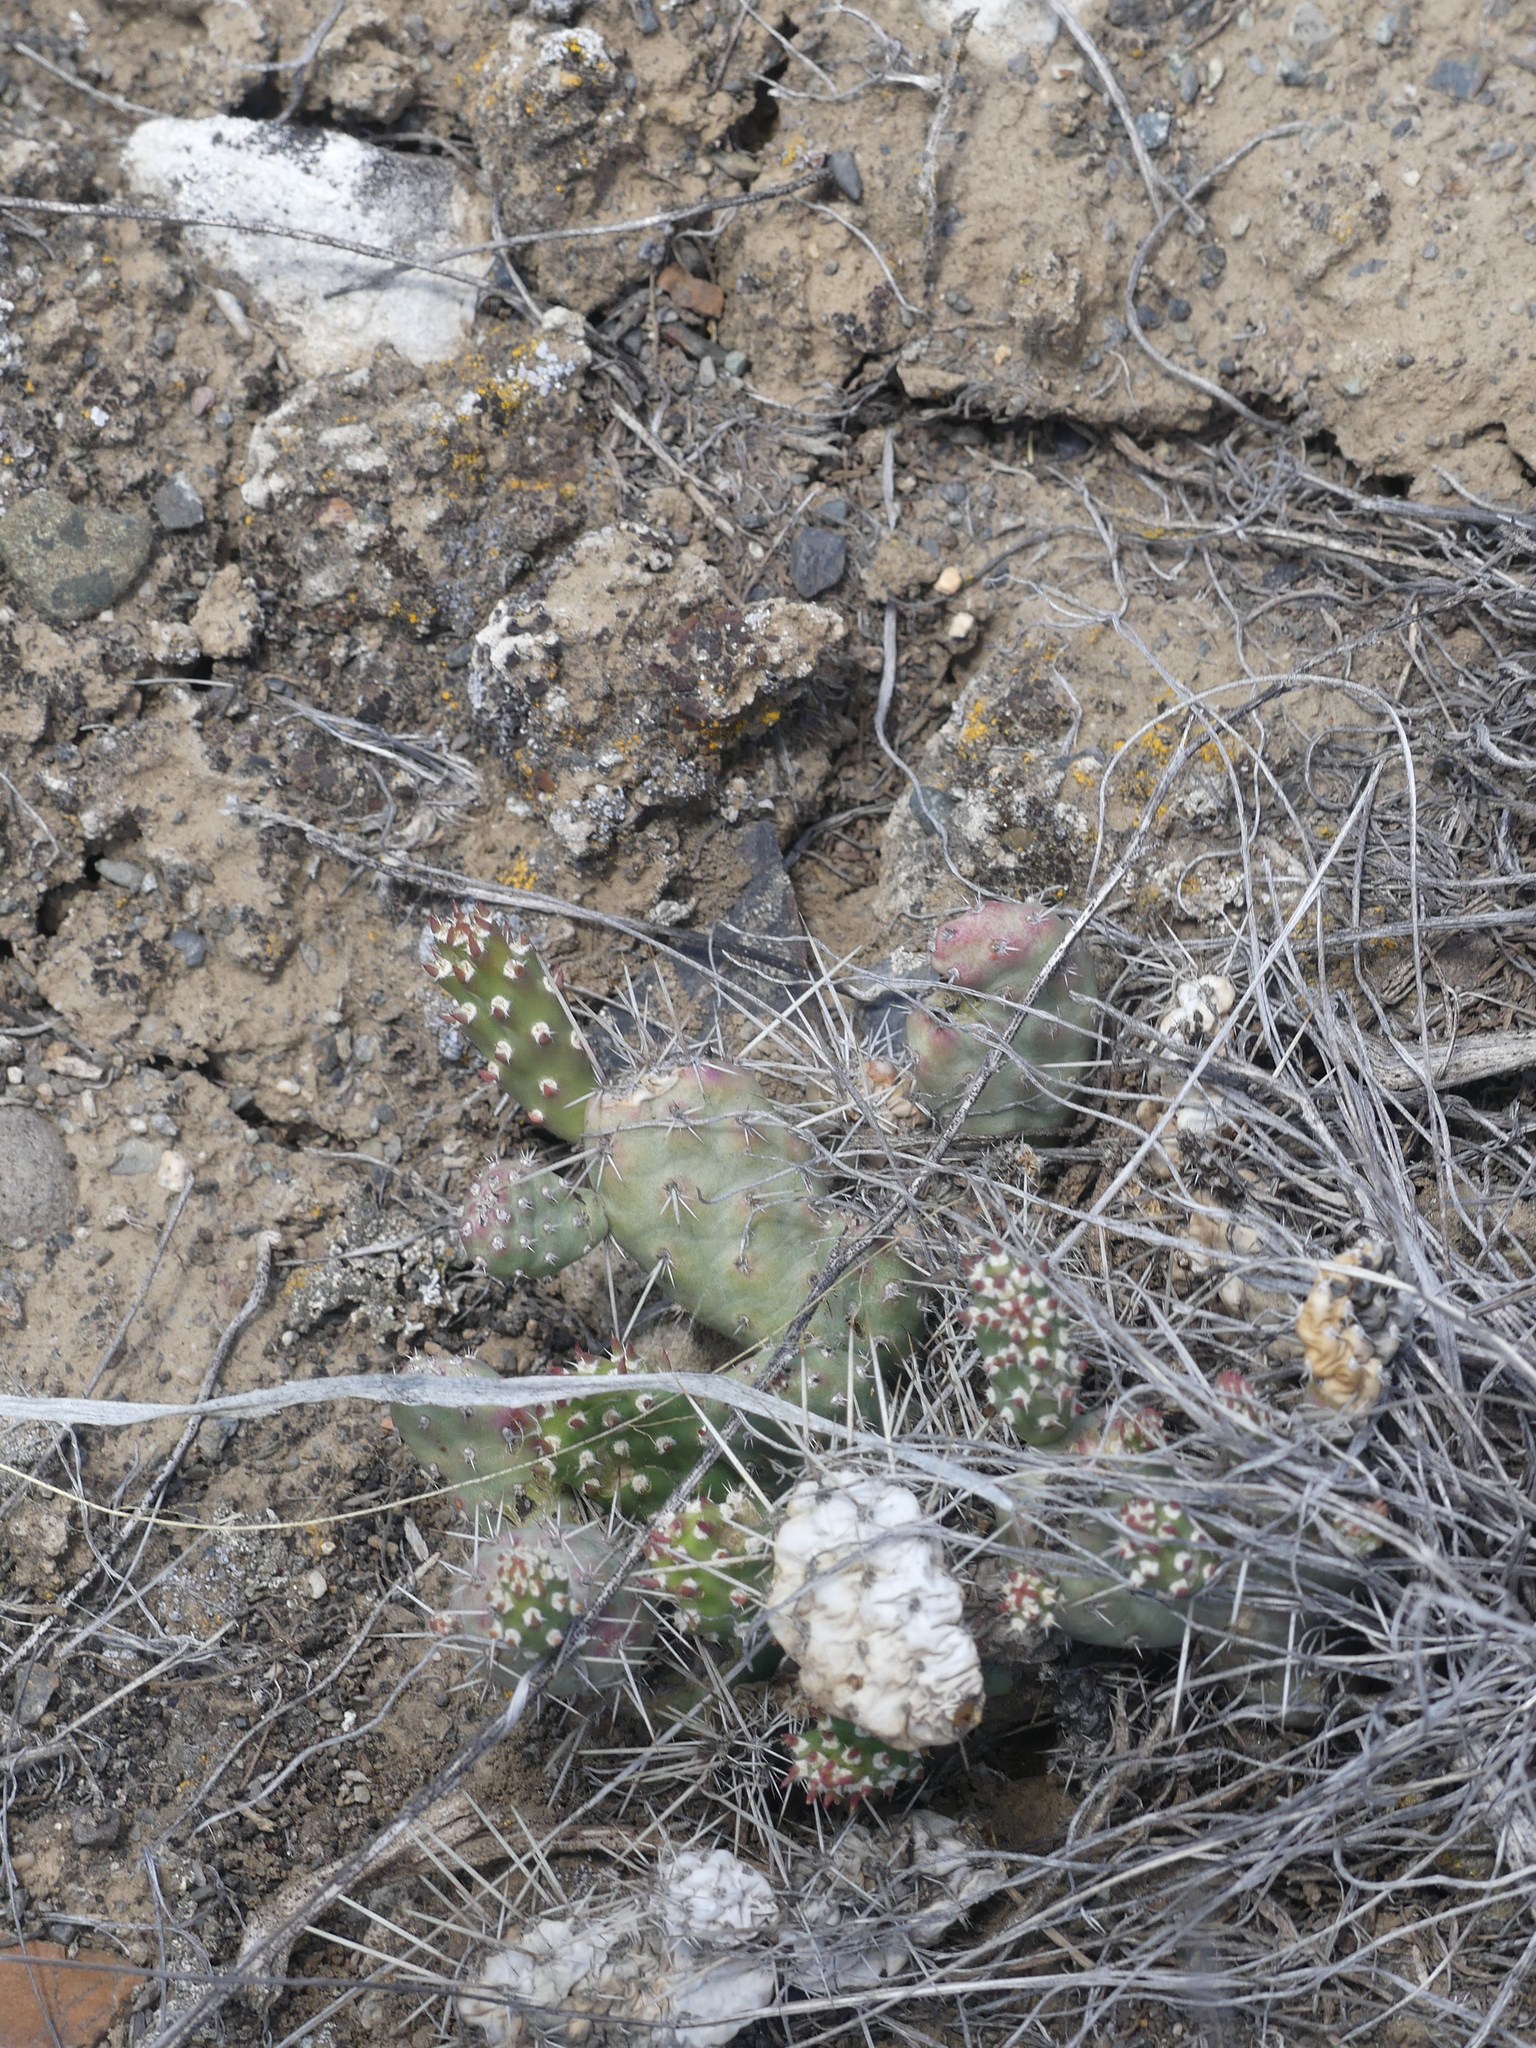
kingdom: Plantae
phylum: Tracheophyta
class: Magnoliopsida
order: Caryophyllales
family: Cactaceae
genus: Opuntia
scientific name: Opuntia fragilis
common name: Brittle cactus
